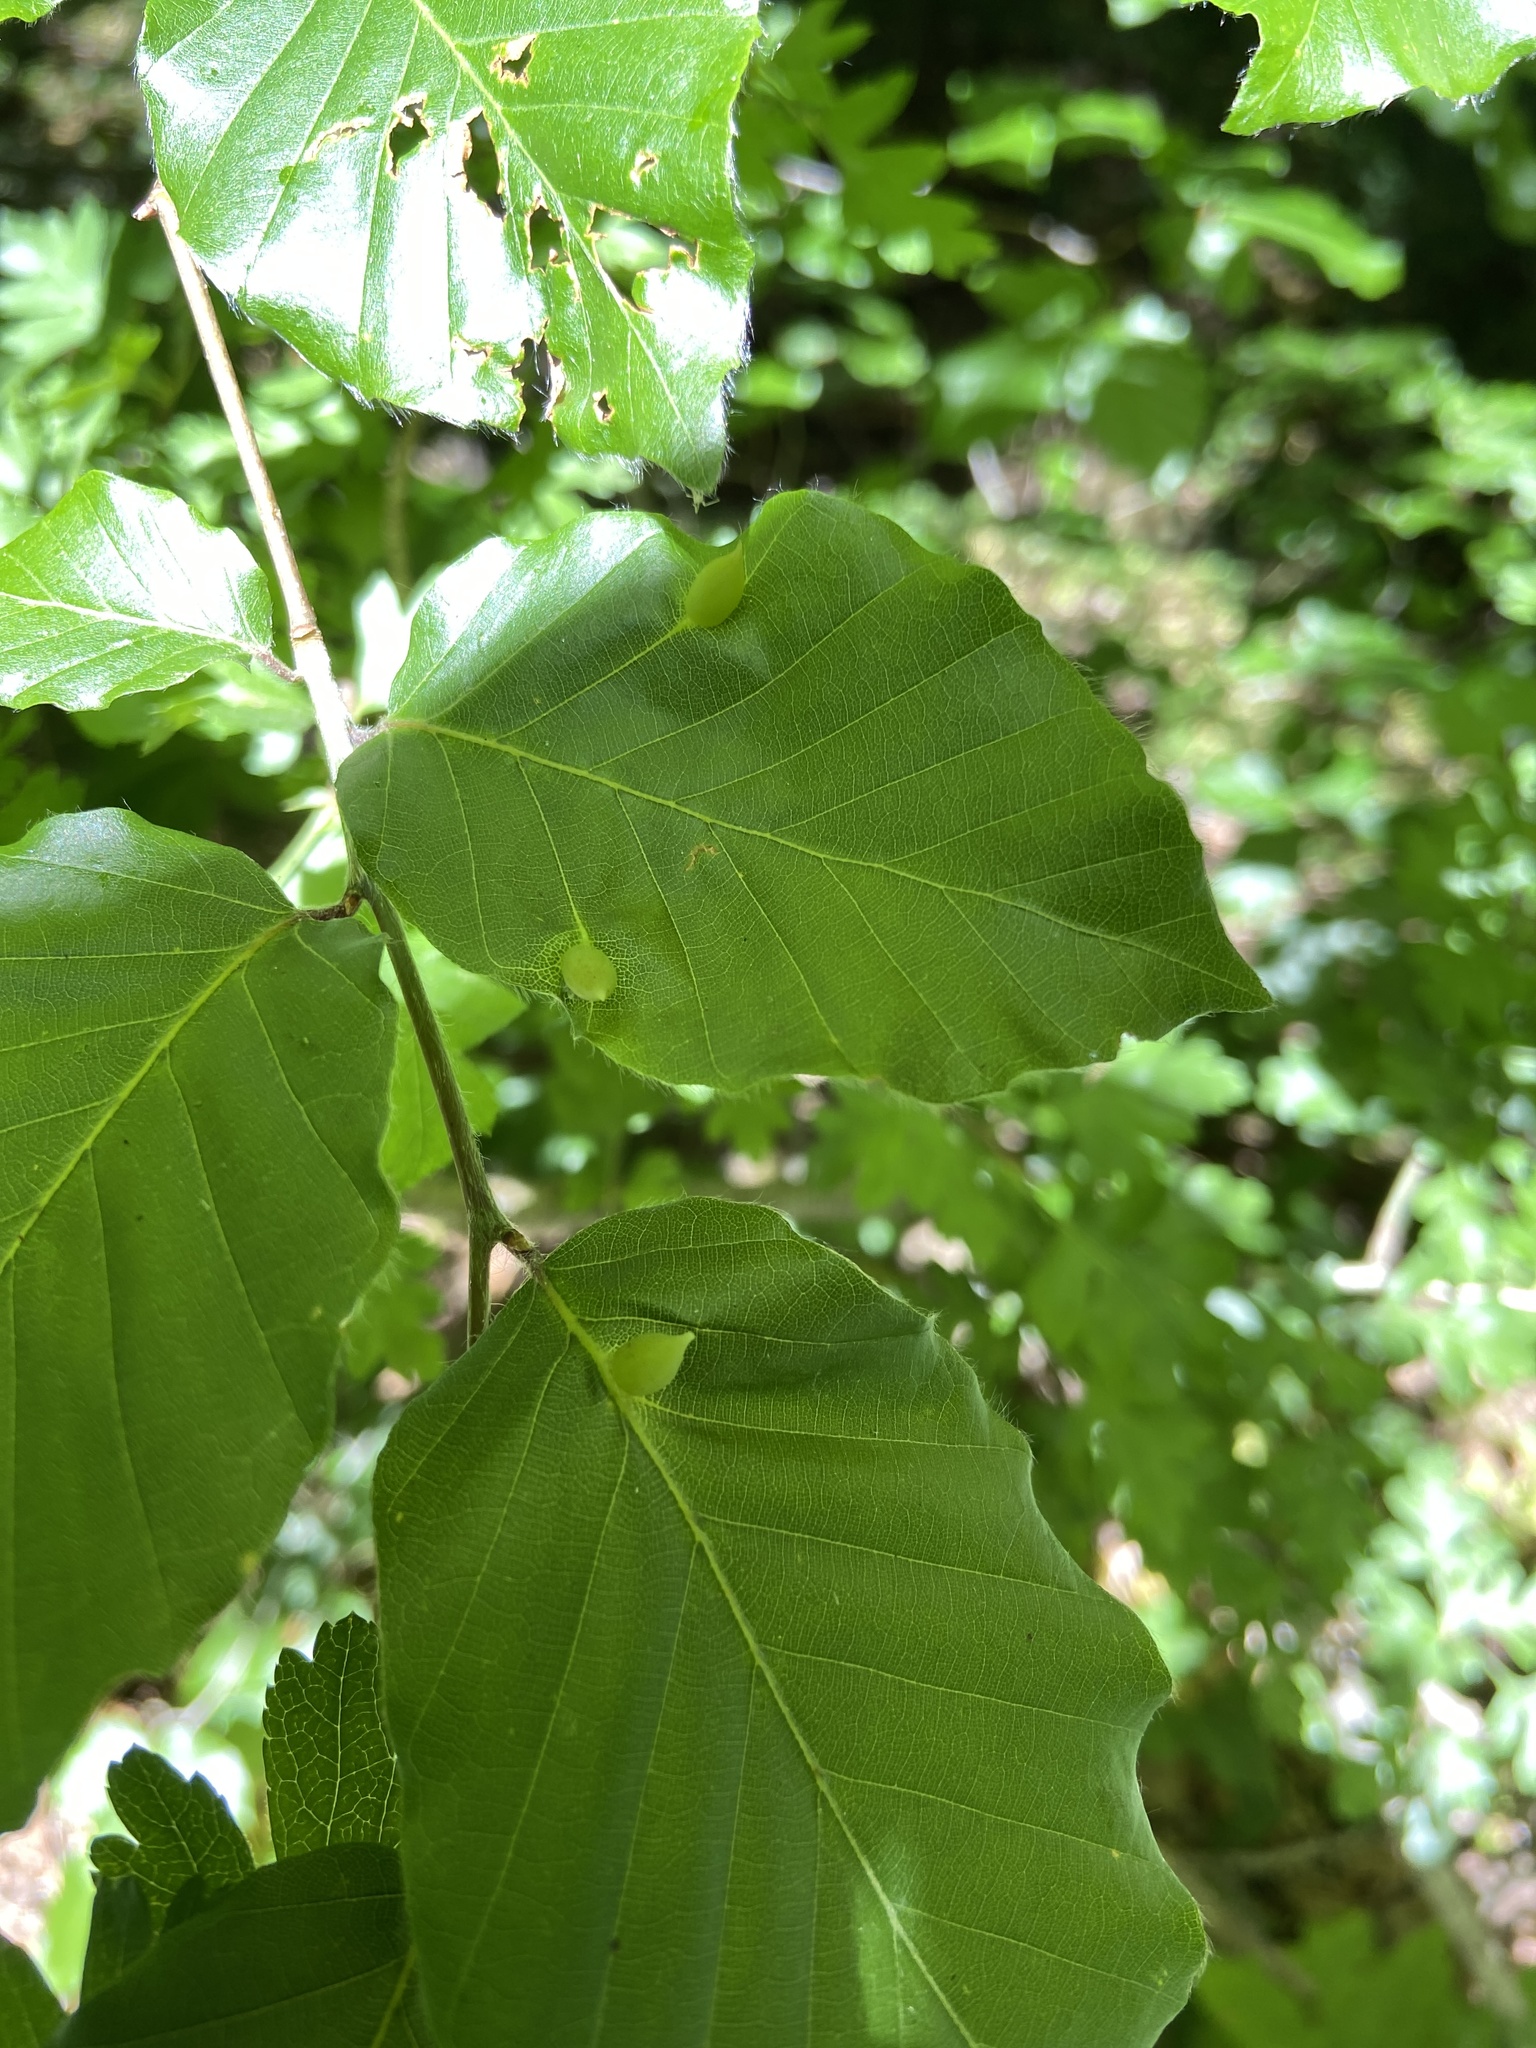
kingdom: Animalia
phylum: Arthropoda
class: Insecta
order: Diptera
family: Cecidomyiidae
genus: Mikiola
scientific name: Mikiola fagi
